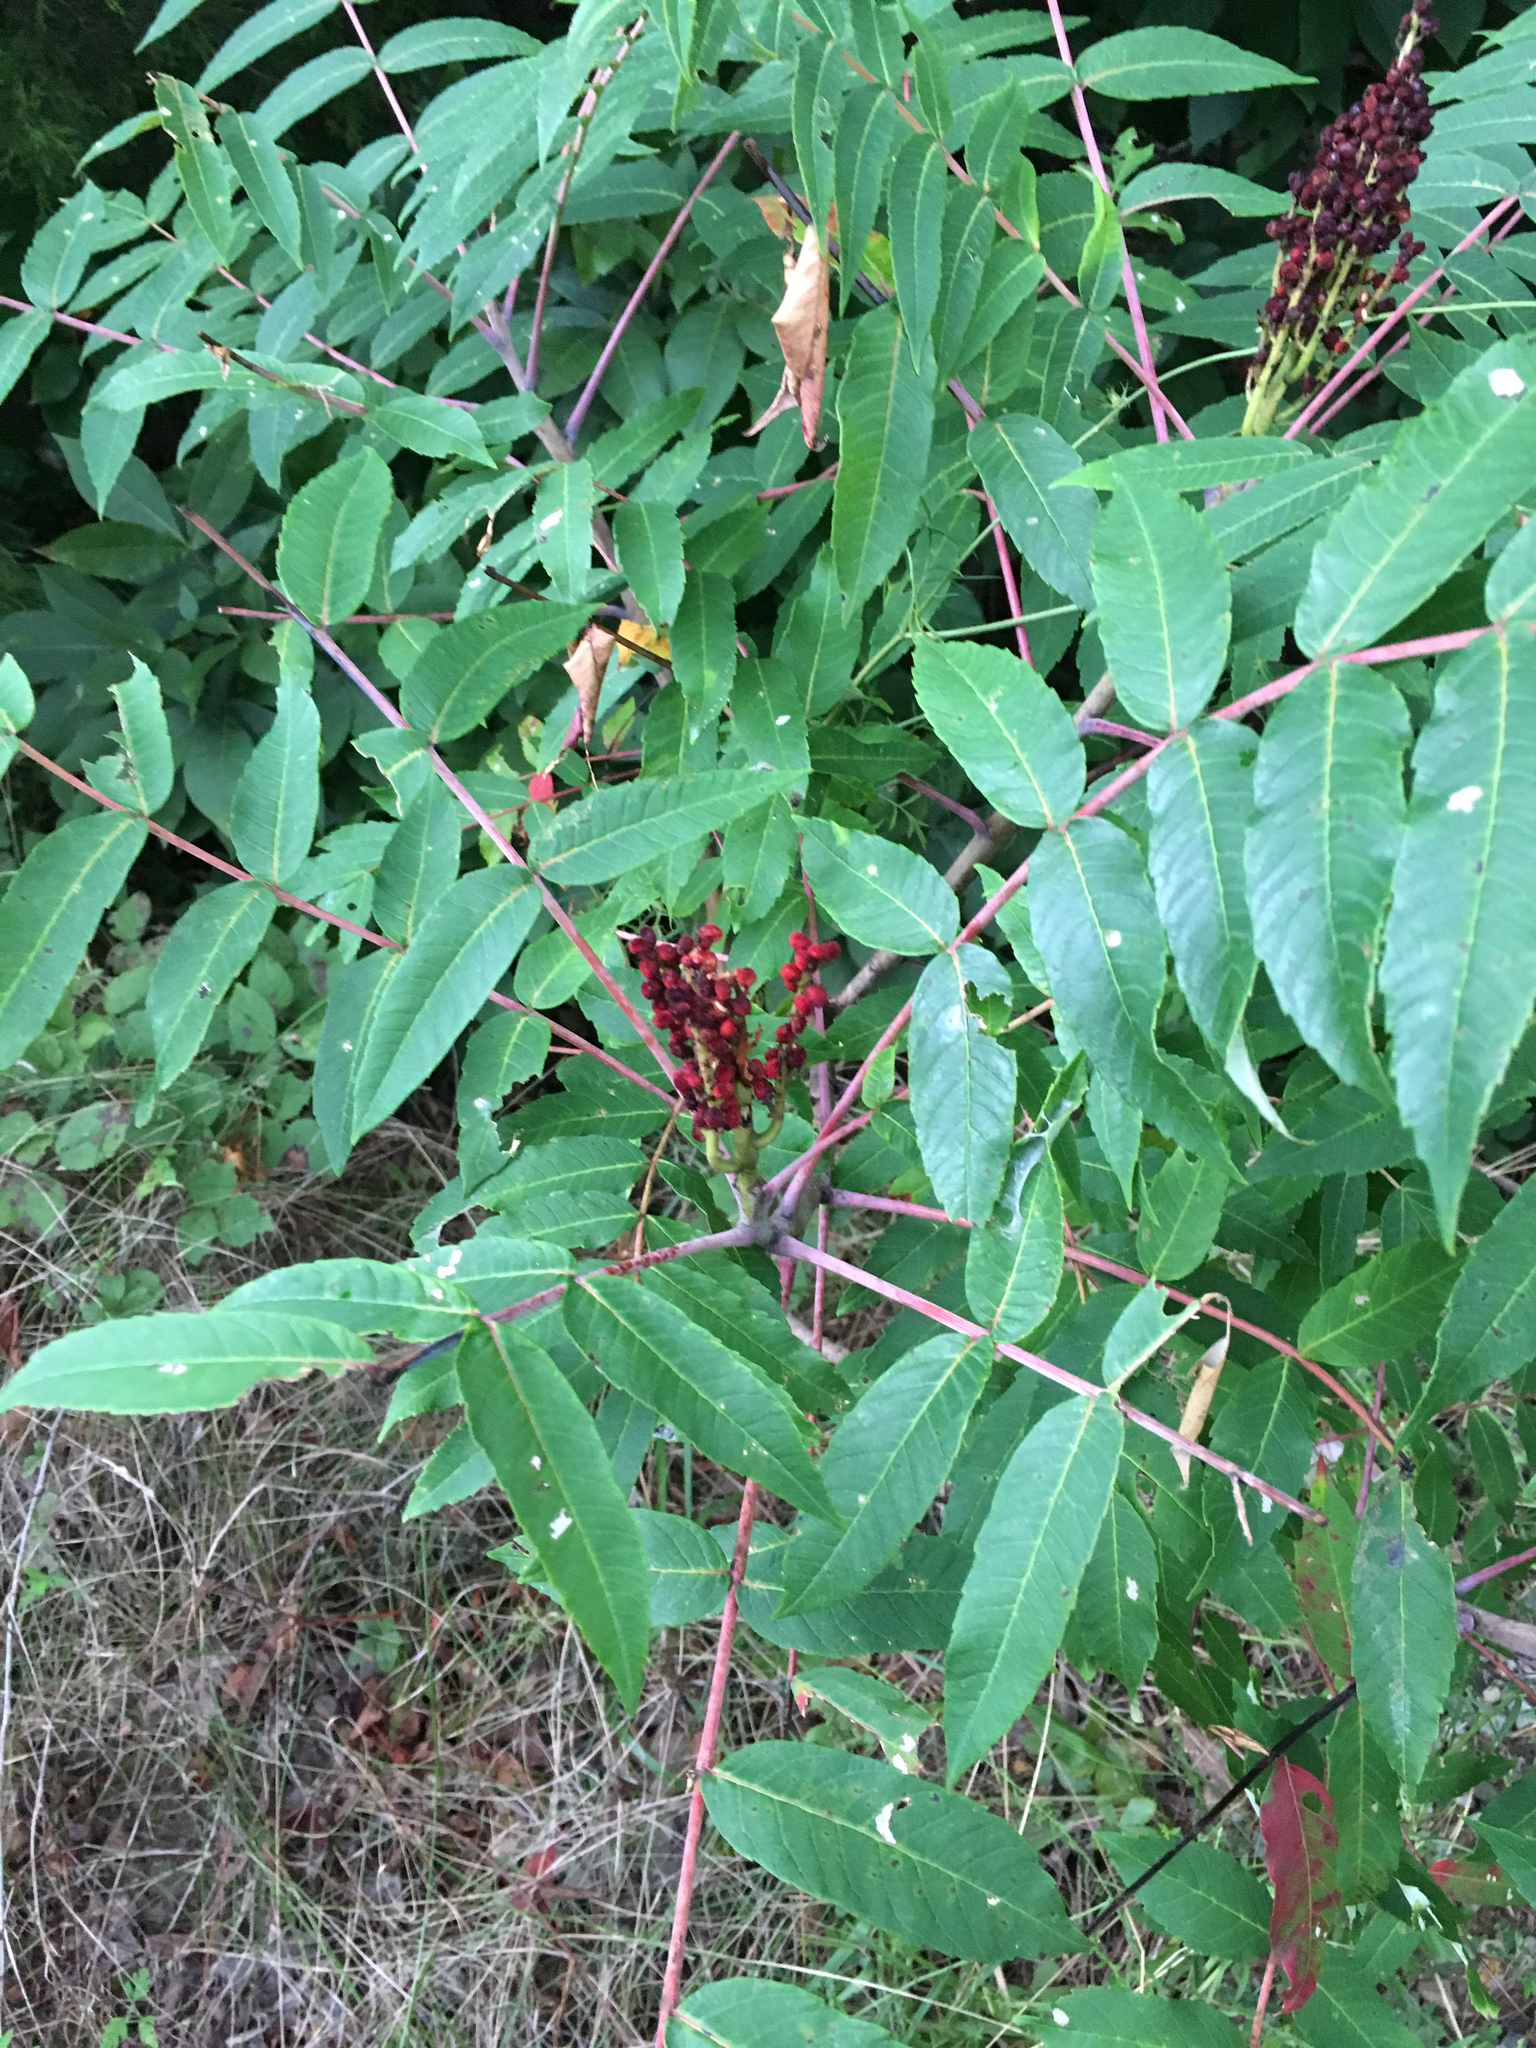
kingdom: Plantae
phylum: Tracheophyta
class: Magnoliopsida
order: Sapindales
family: Anacardiaceae
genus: Rhus
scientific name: Rhus glabra
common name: Scarlet sumac
